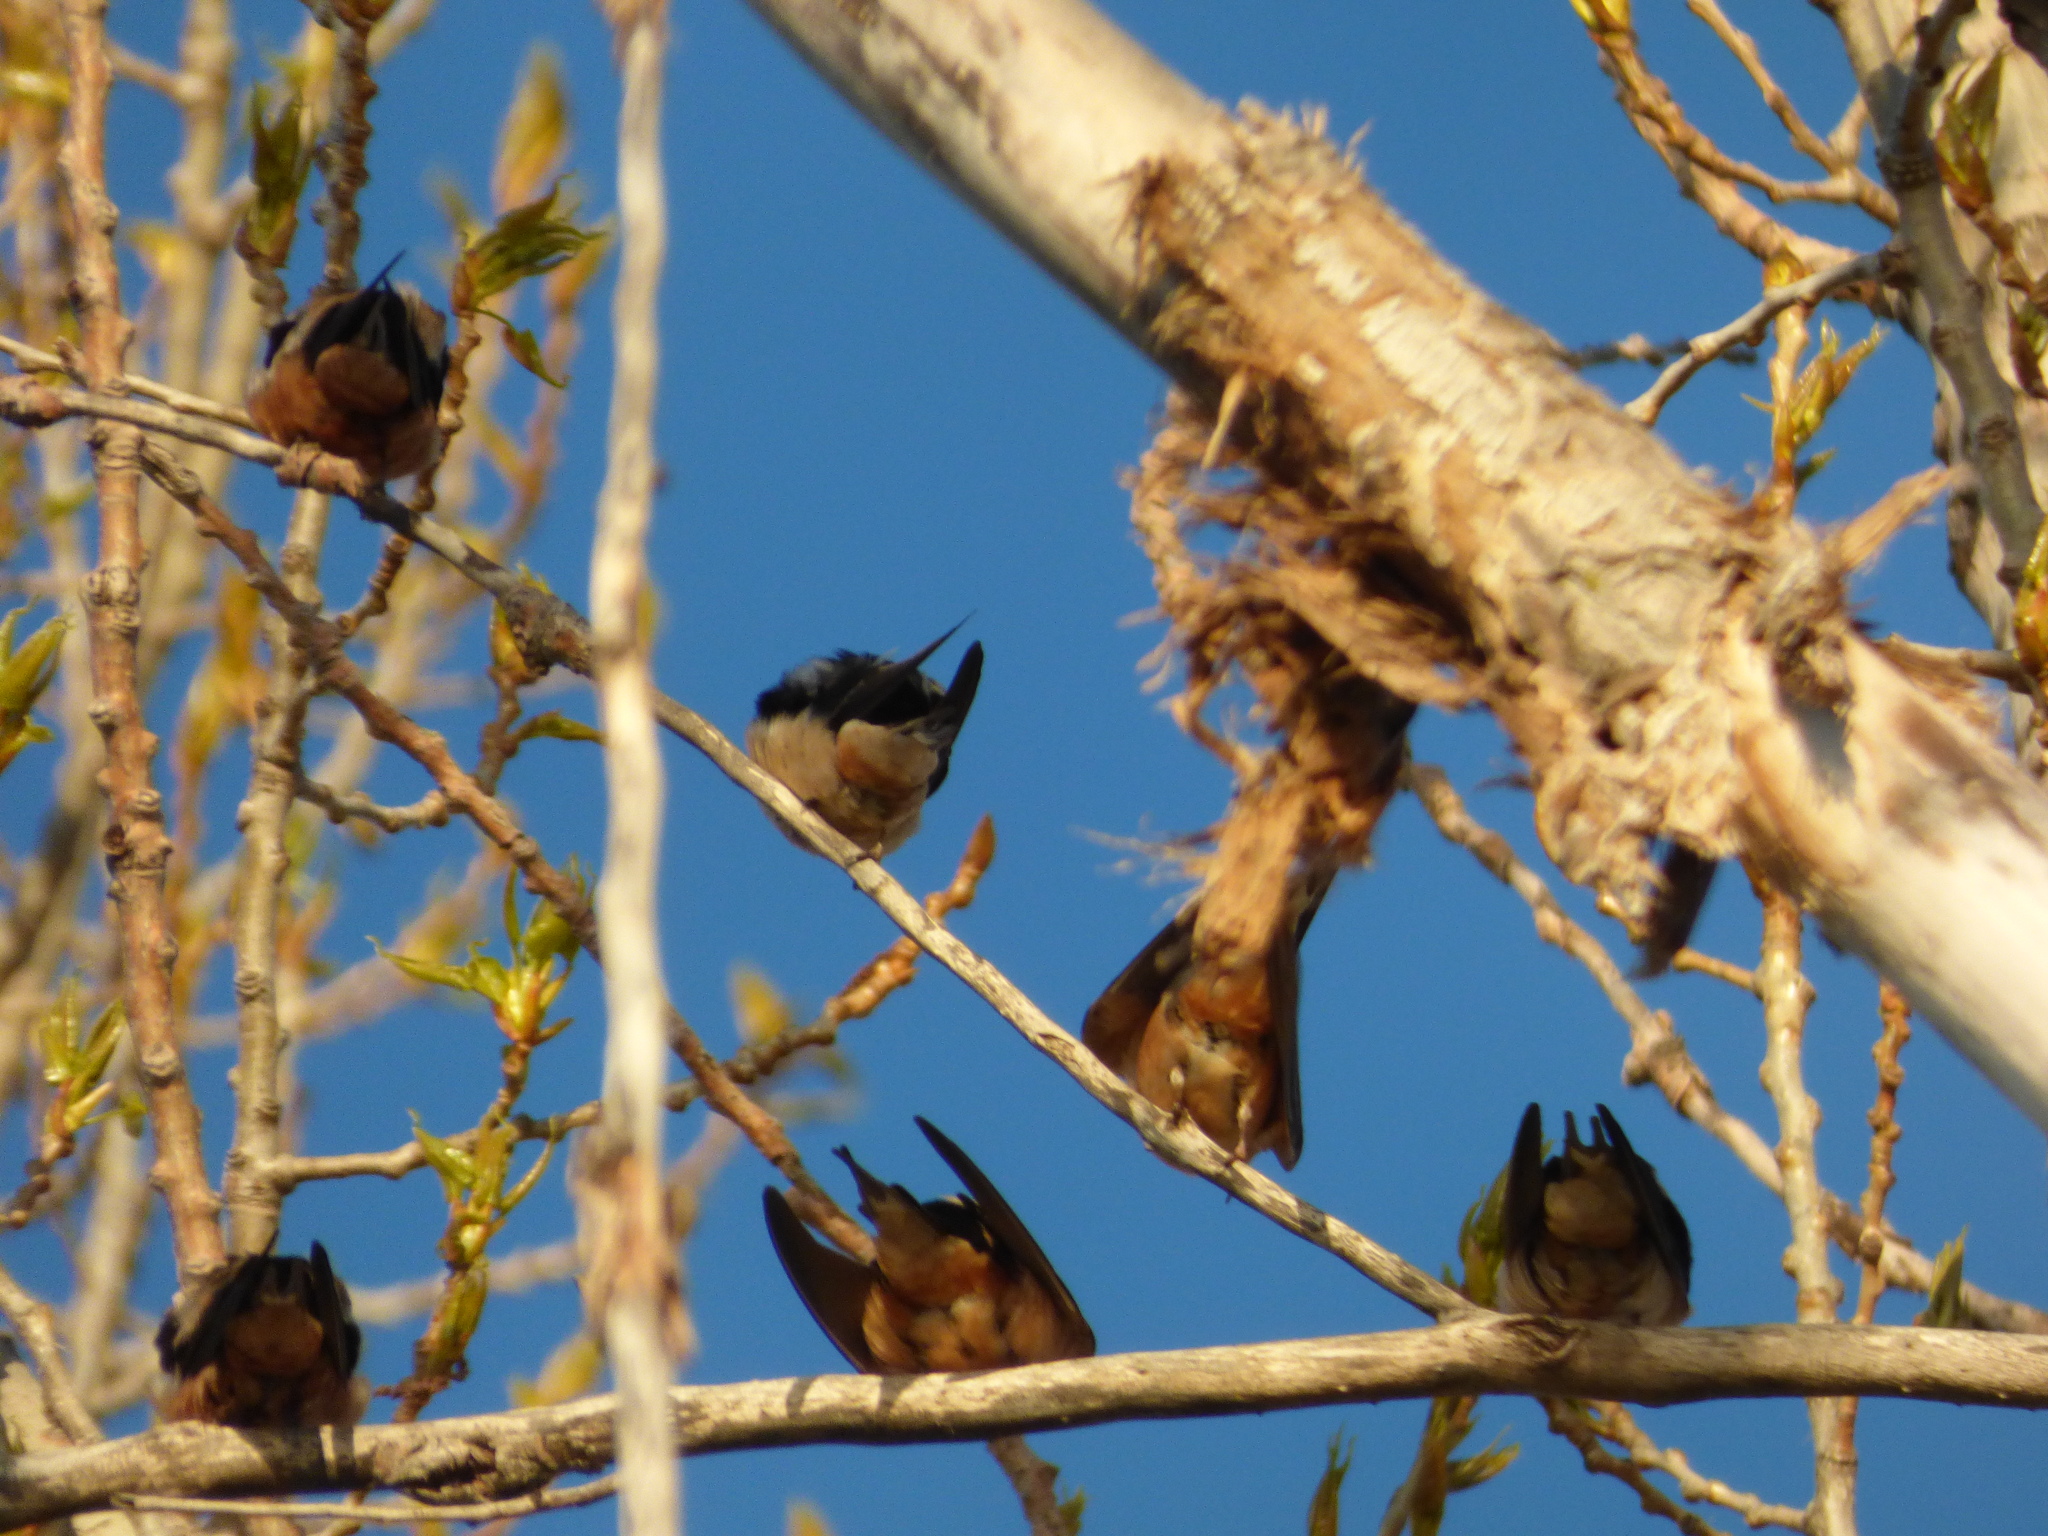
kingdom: Animalia
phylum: Chordata
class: Aves
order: Passeriformes
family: Hirundinidae
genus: Hirundo
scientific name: Hirundo rustica
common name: Barn swallow
